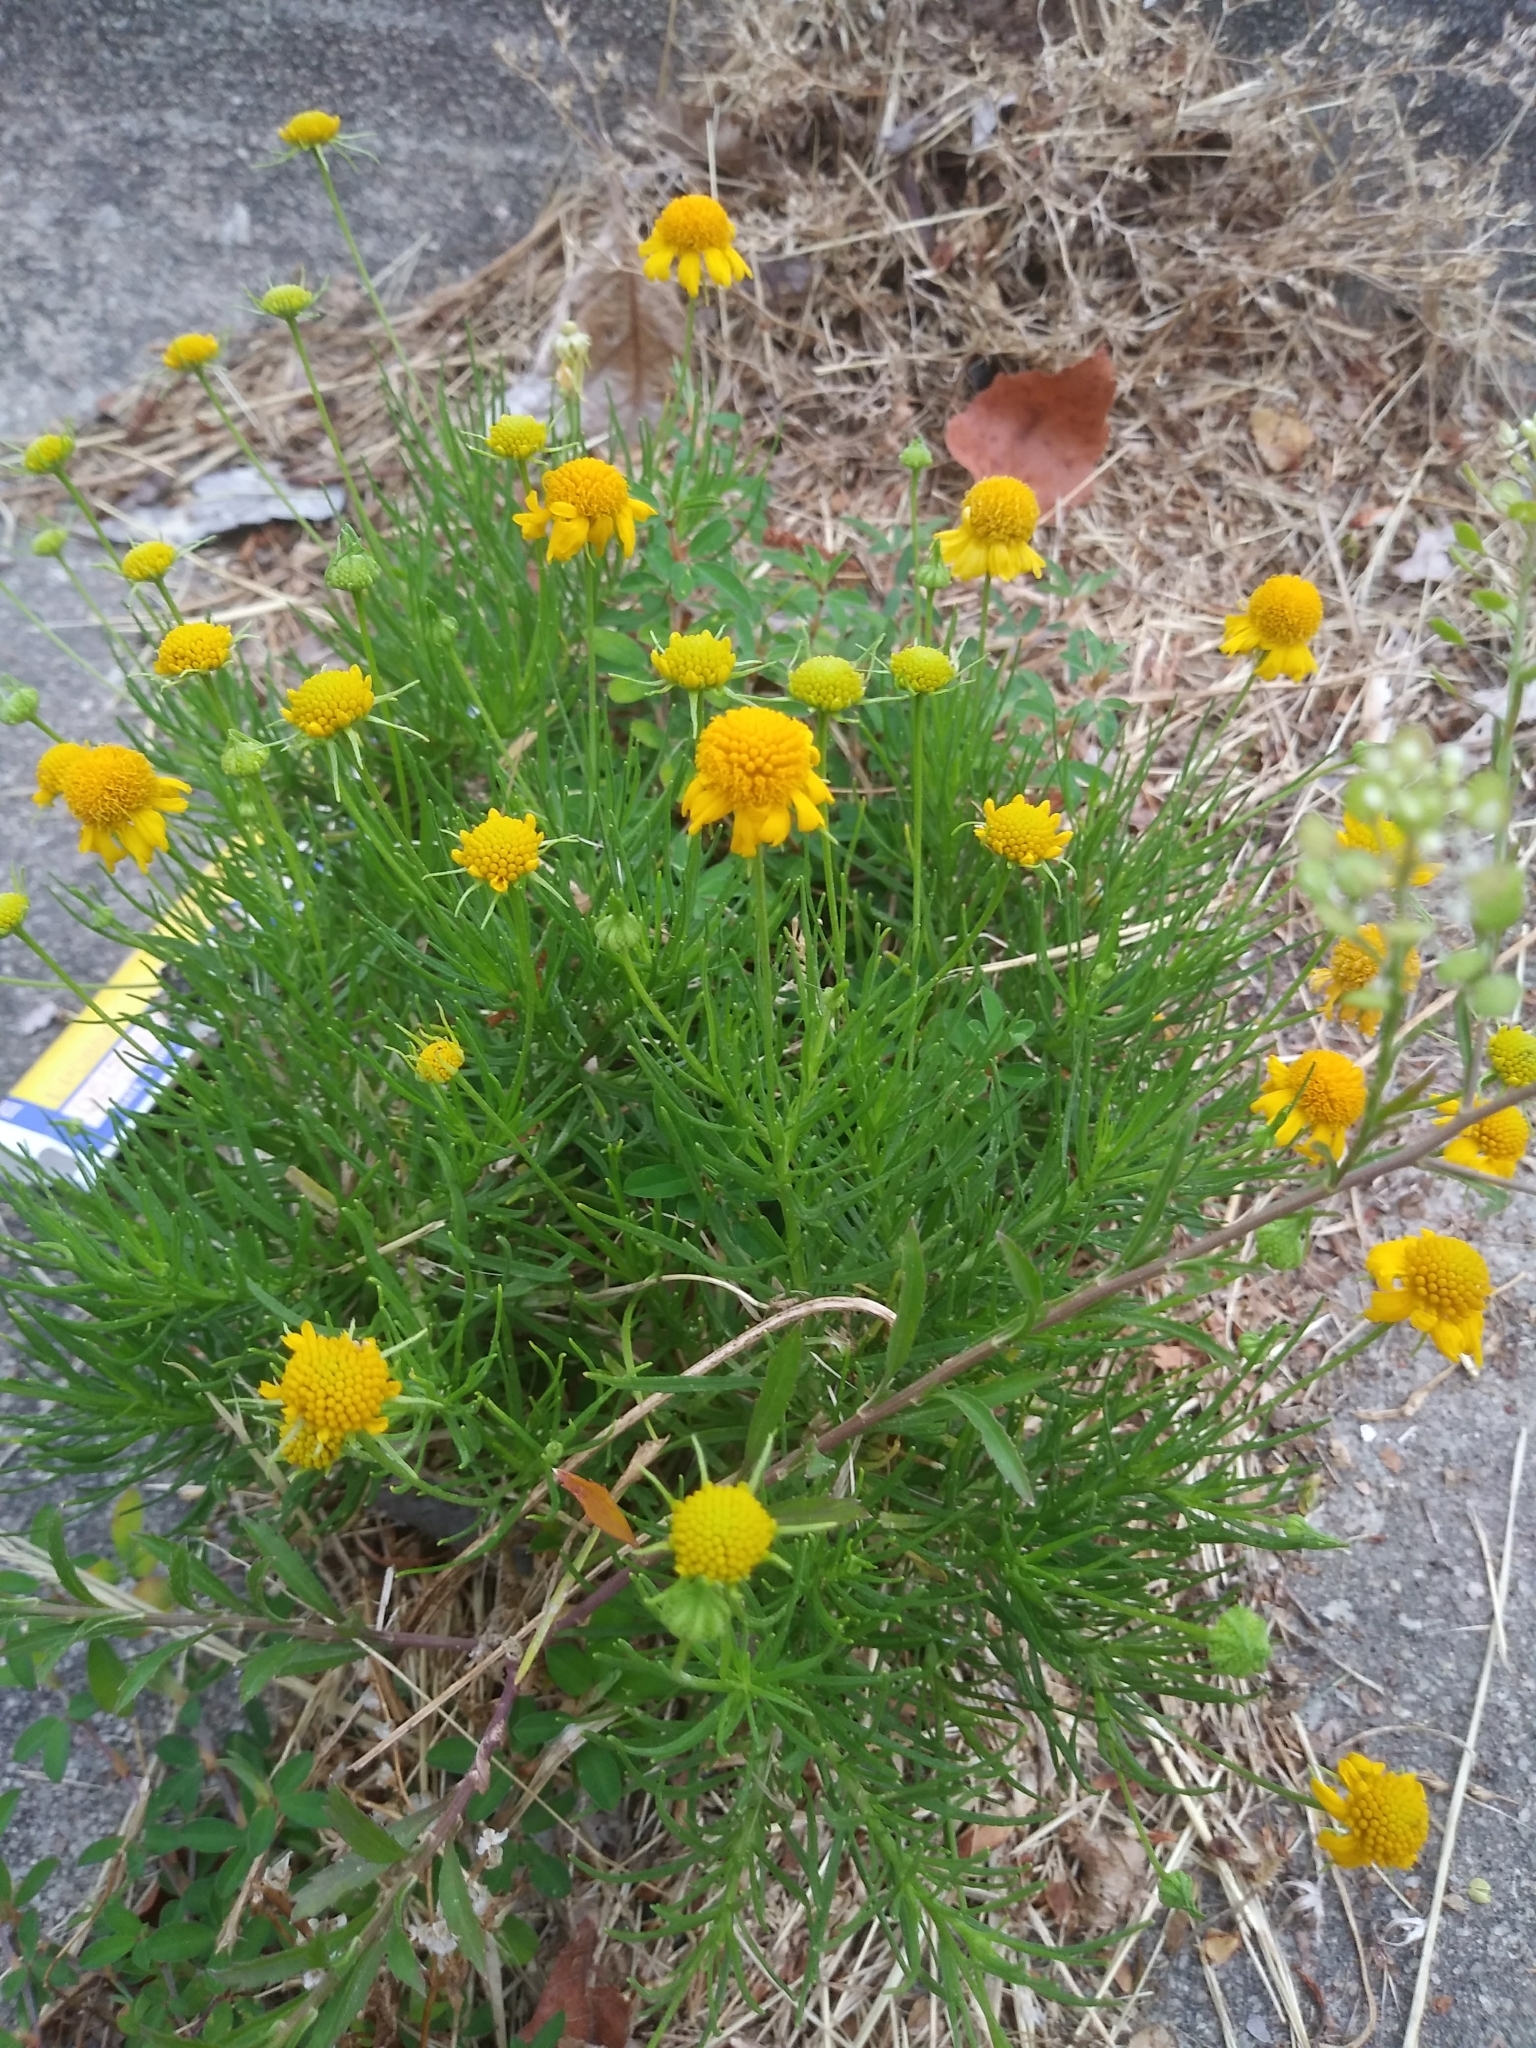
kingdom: Plantae
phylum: Tracheophyta
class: Magnoliopsida
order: Asterales
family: Asteraceae
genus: Helenium
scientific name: Helenium amarum
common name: Bitter sneezeweed
